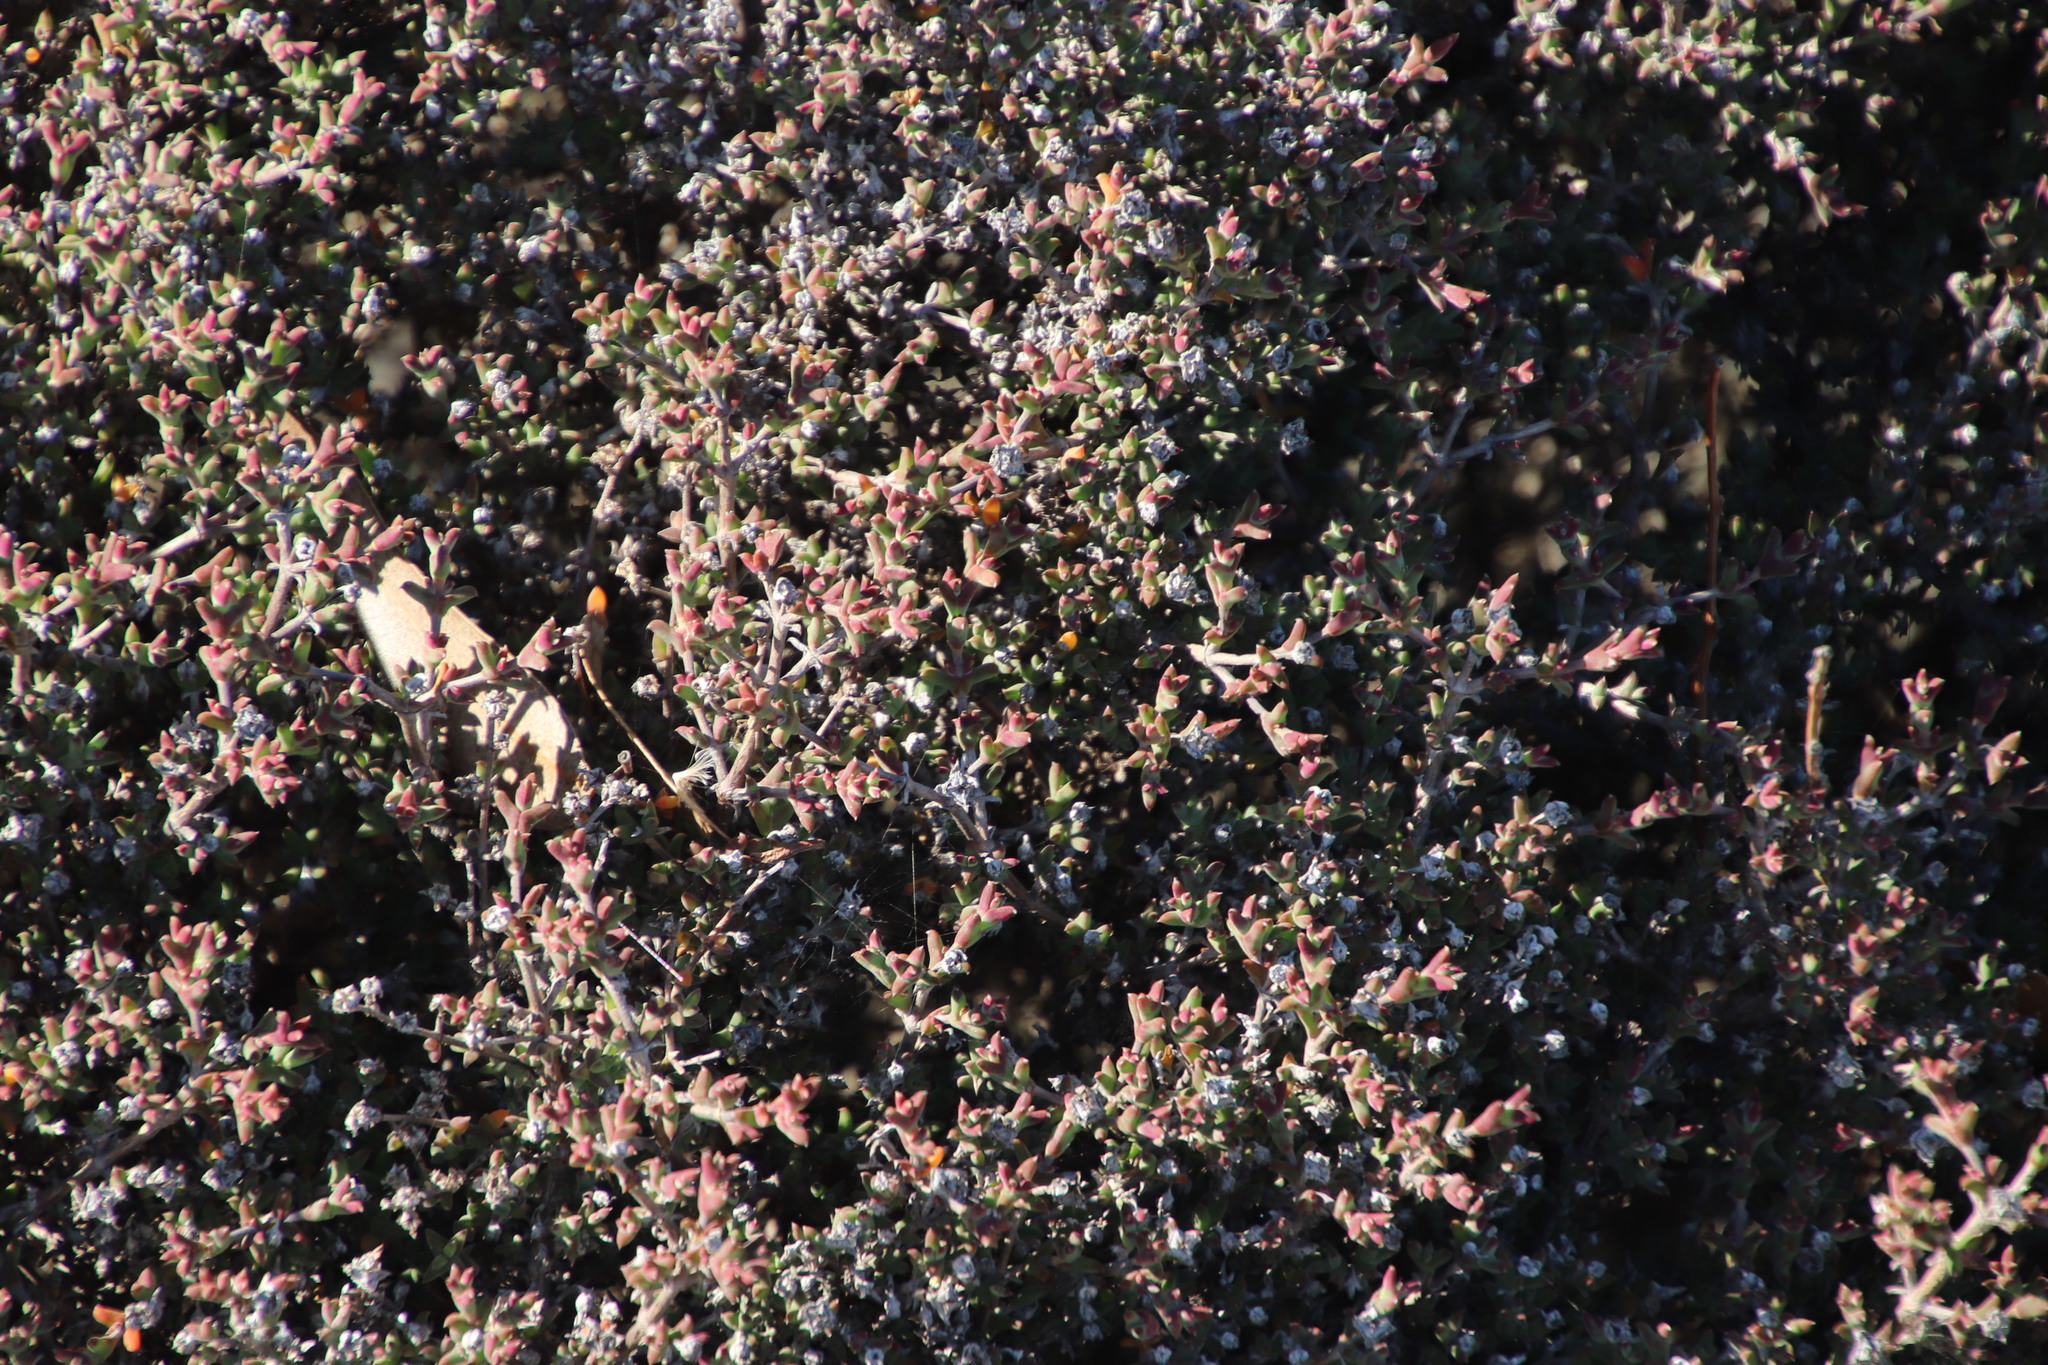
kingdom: Plantae
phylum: Tracheophyta
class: Magnoliopsida
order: Caryophyllales
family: Aizoaceae
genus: Delosperma
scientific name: Delosperma asperulum
